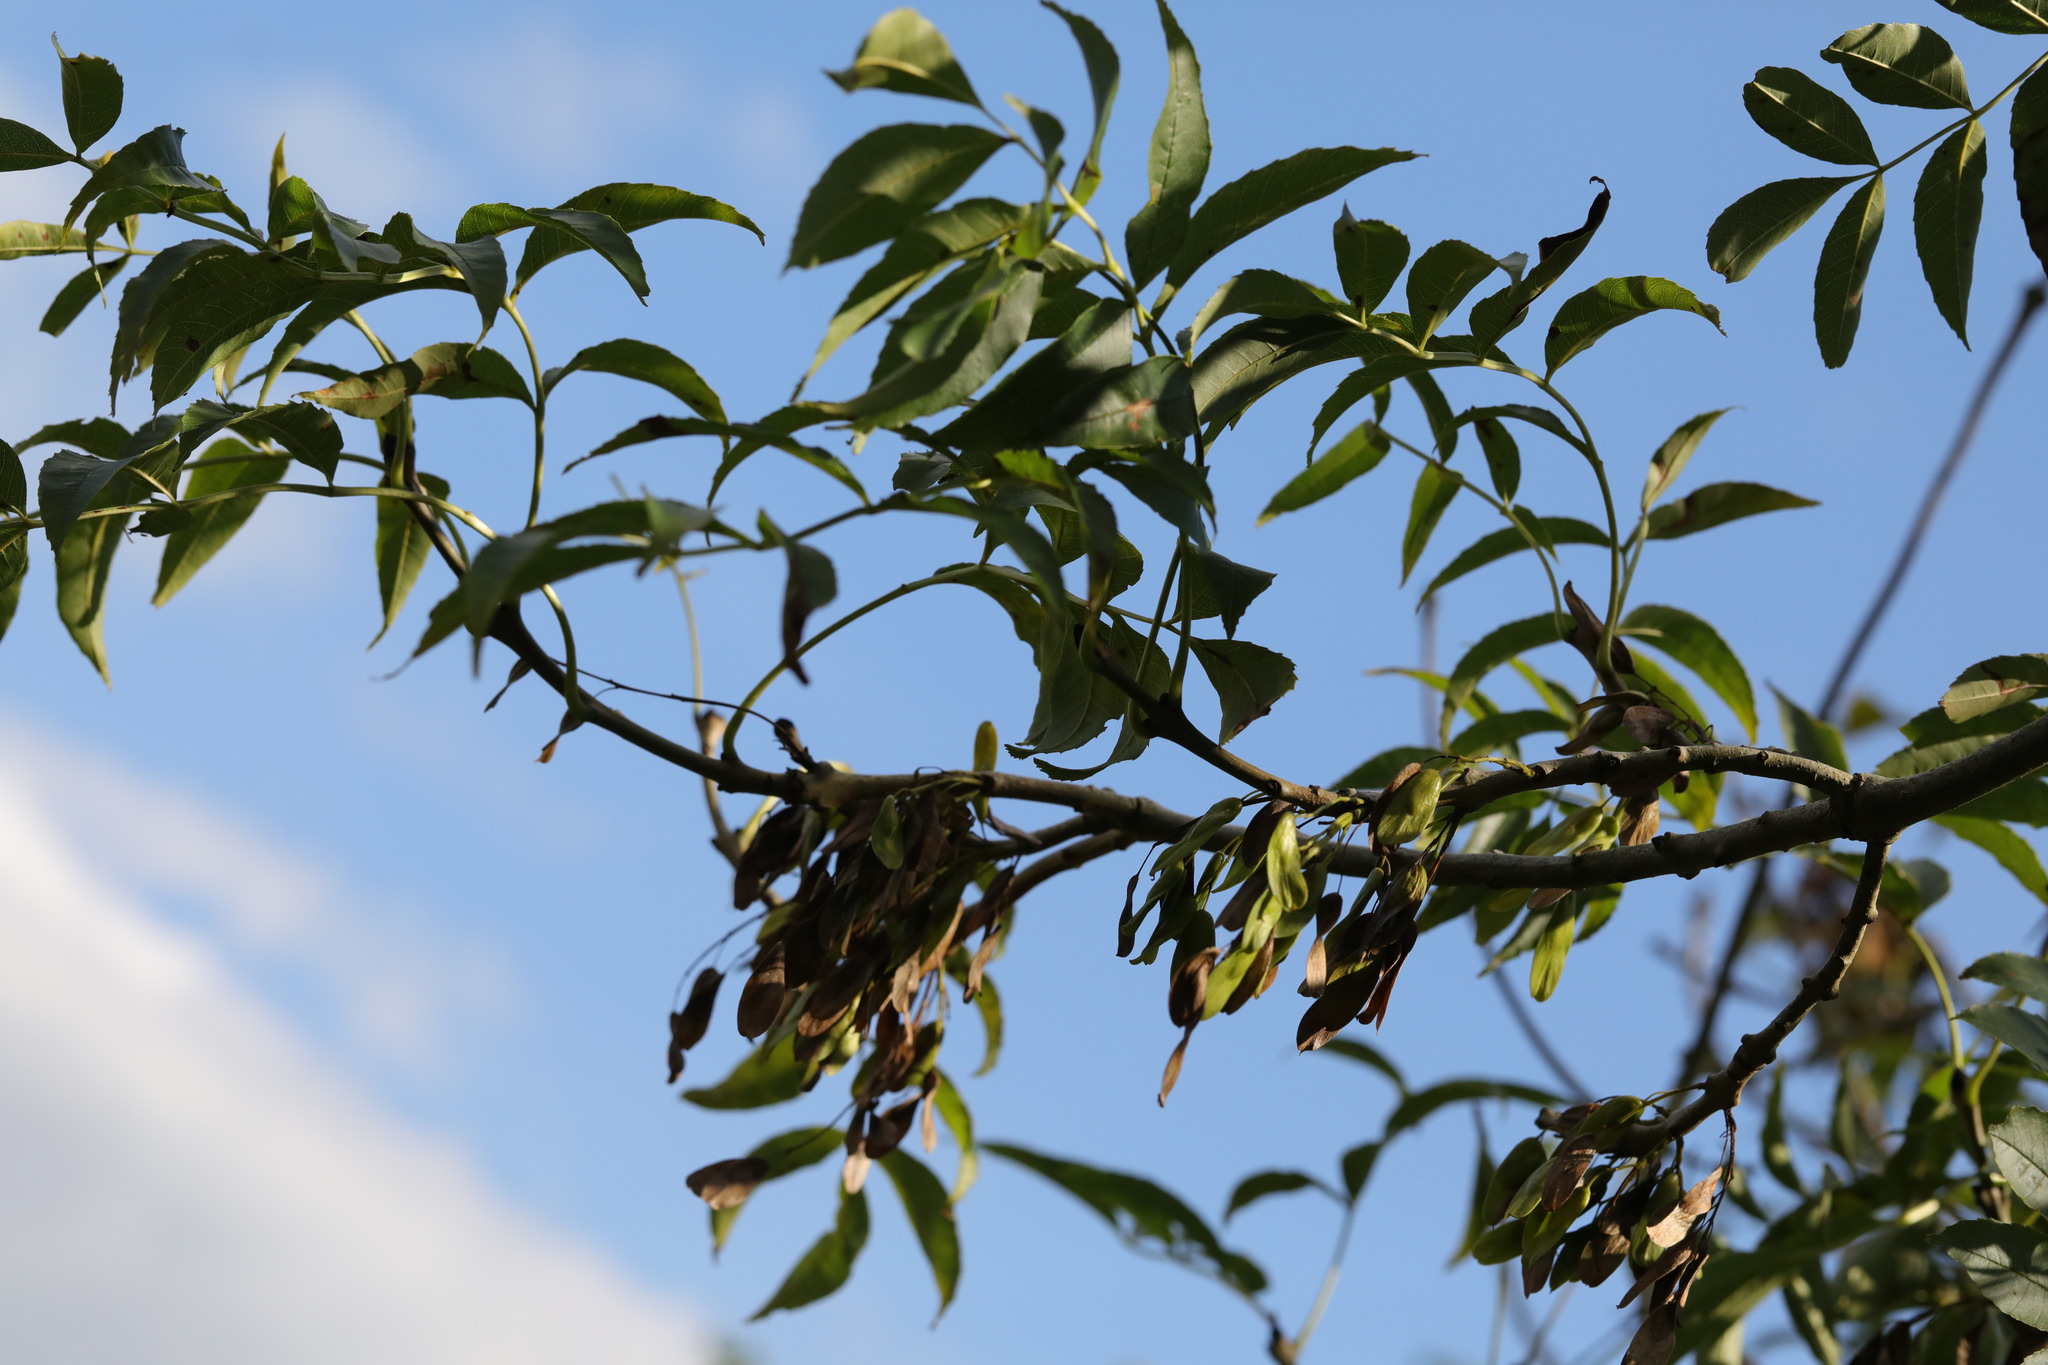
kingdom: Plantae
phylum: Tracheophyta
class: Magnoliopsida
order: Lamiales
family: Oleaceae
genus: Fraxinus
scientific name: Fraxinus excelsior
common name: European ash
